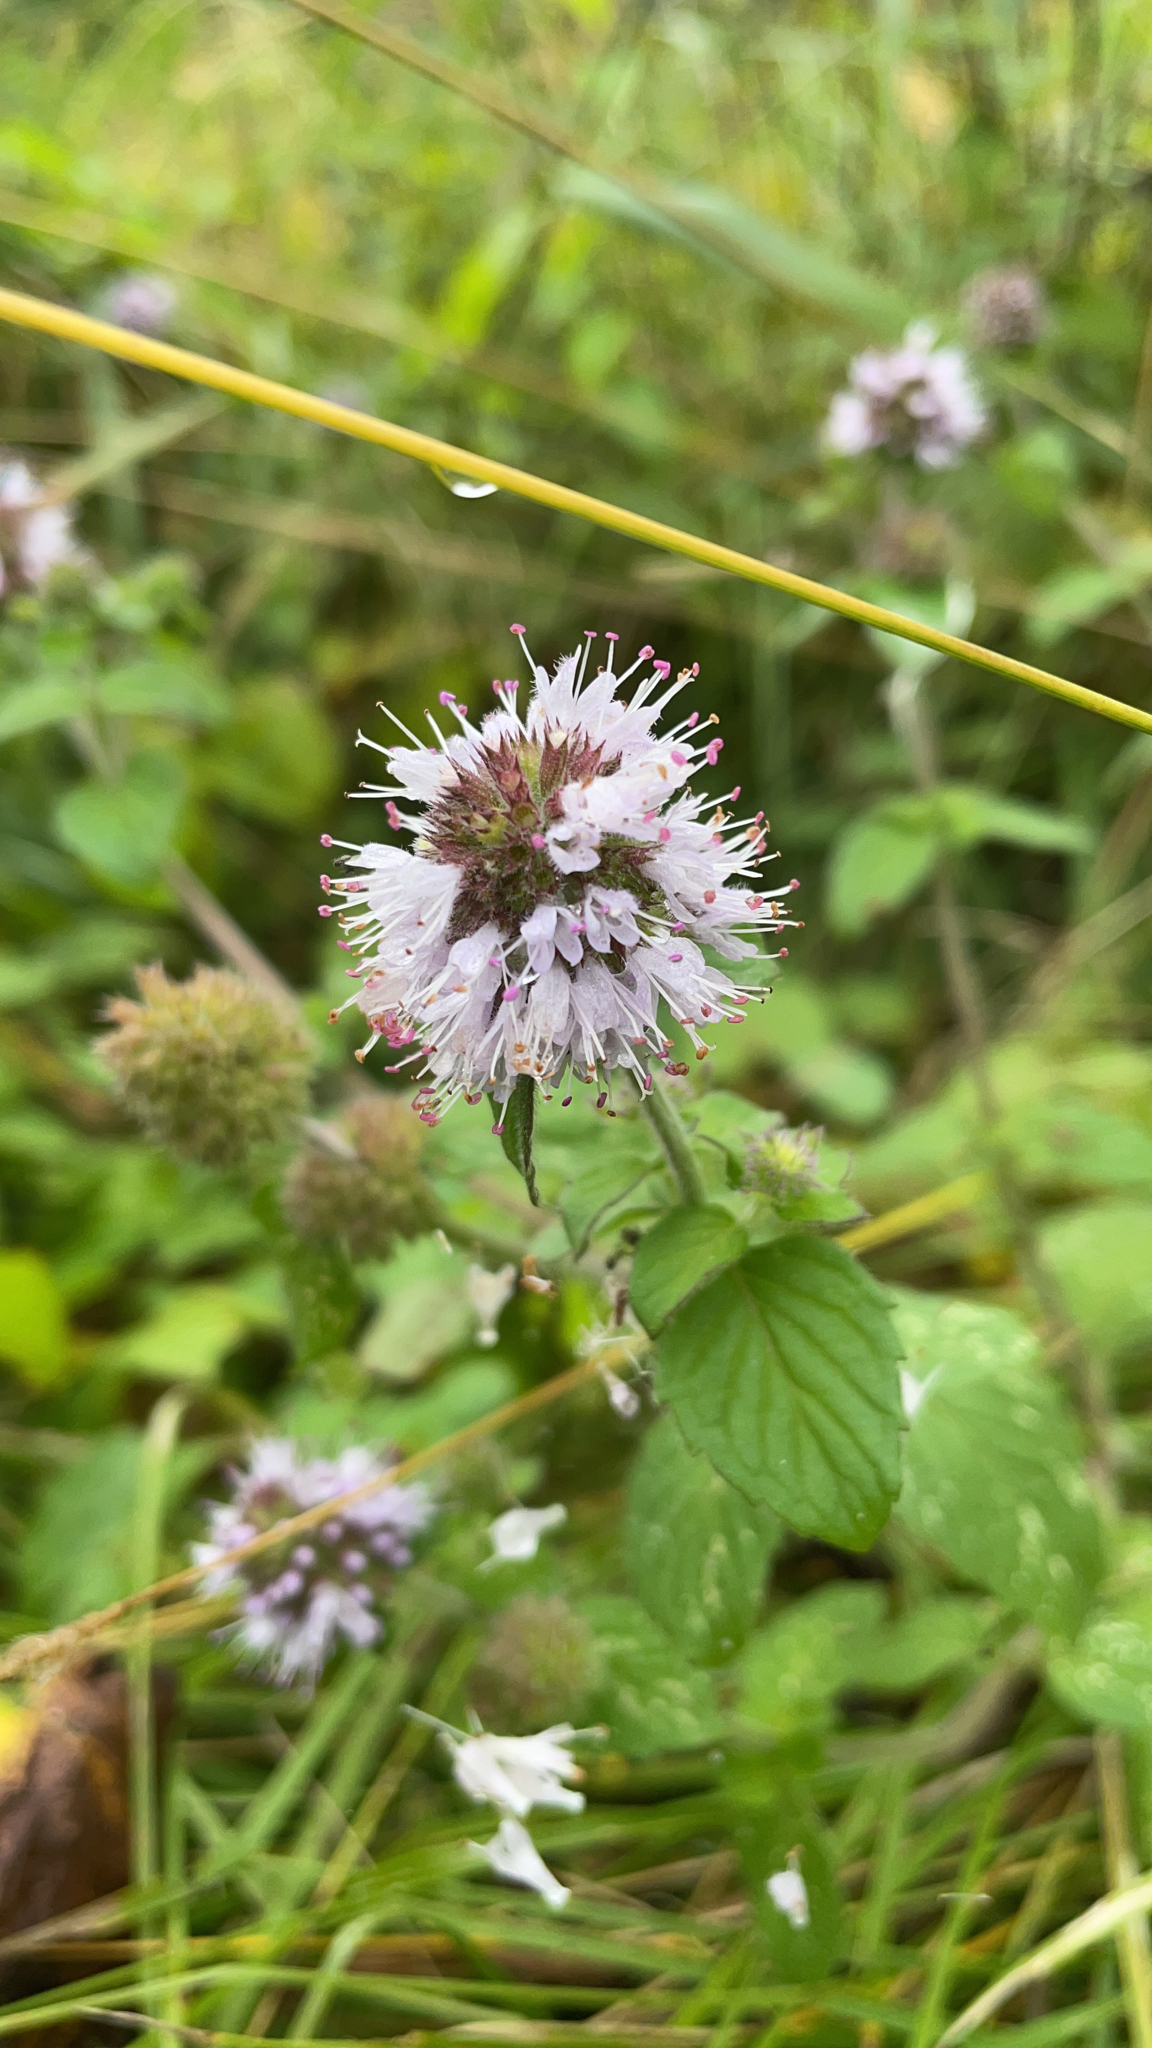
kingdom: Plantae
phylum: Tracheophyta
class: Magnoliopsida
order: Lamiales
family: Lamiaceae
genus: Mentha
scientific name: Mentha aquatica
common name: Water mint
